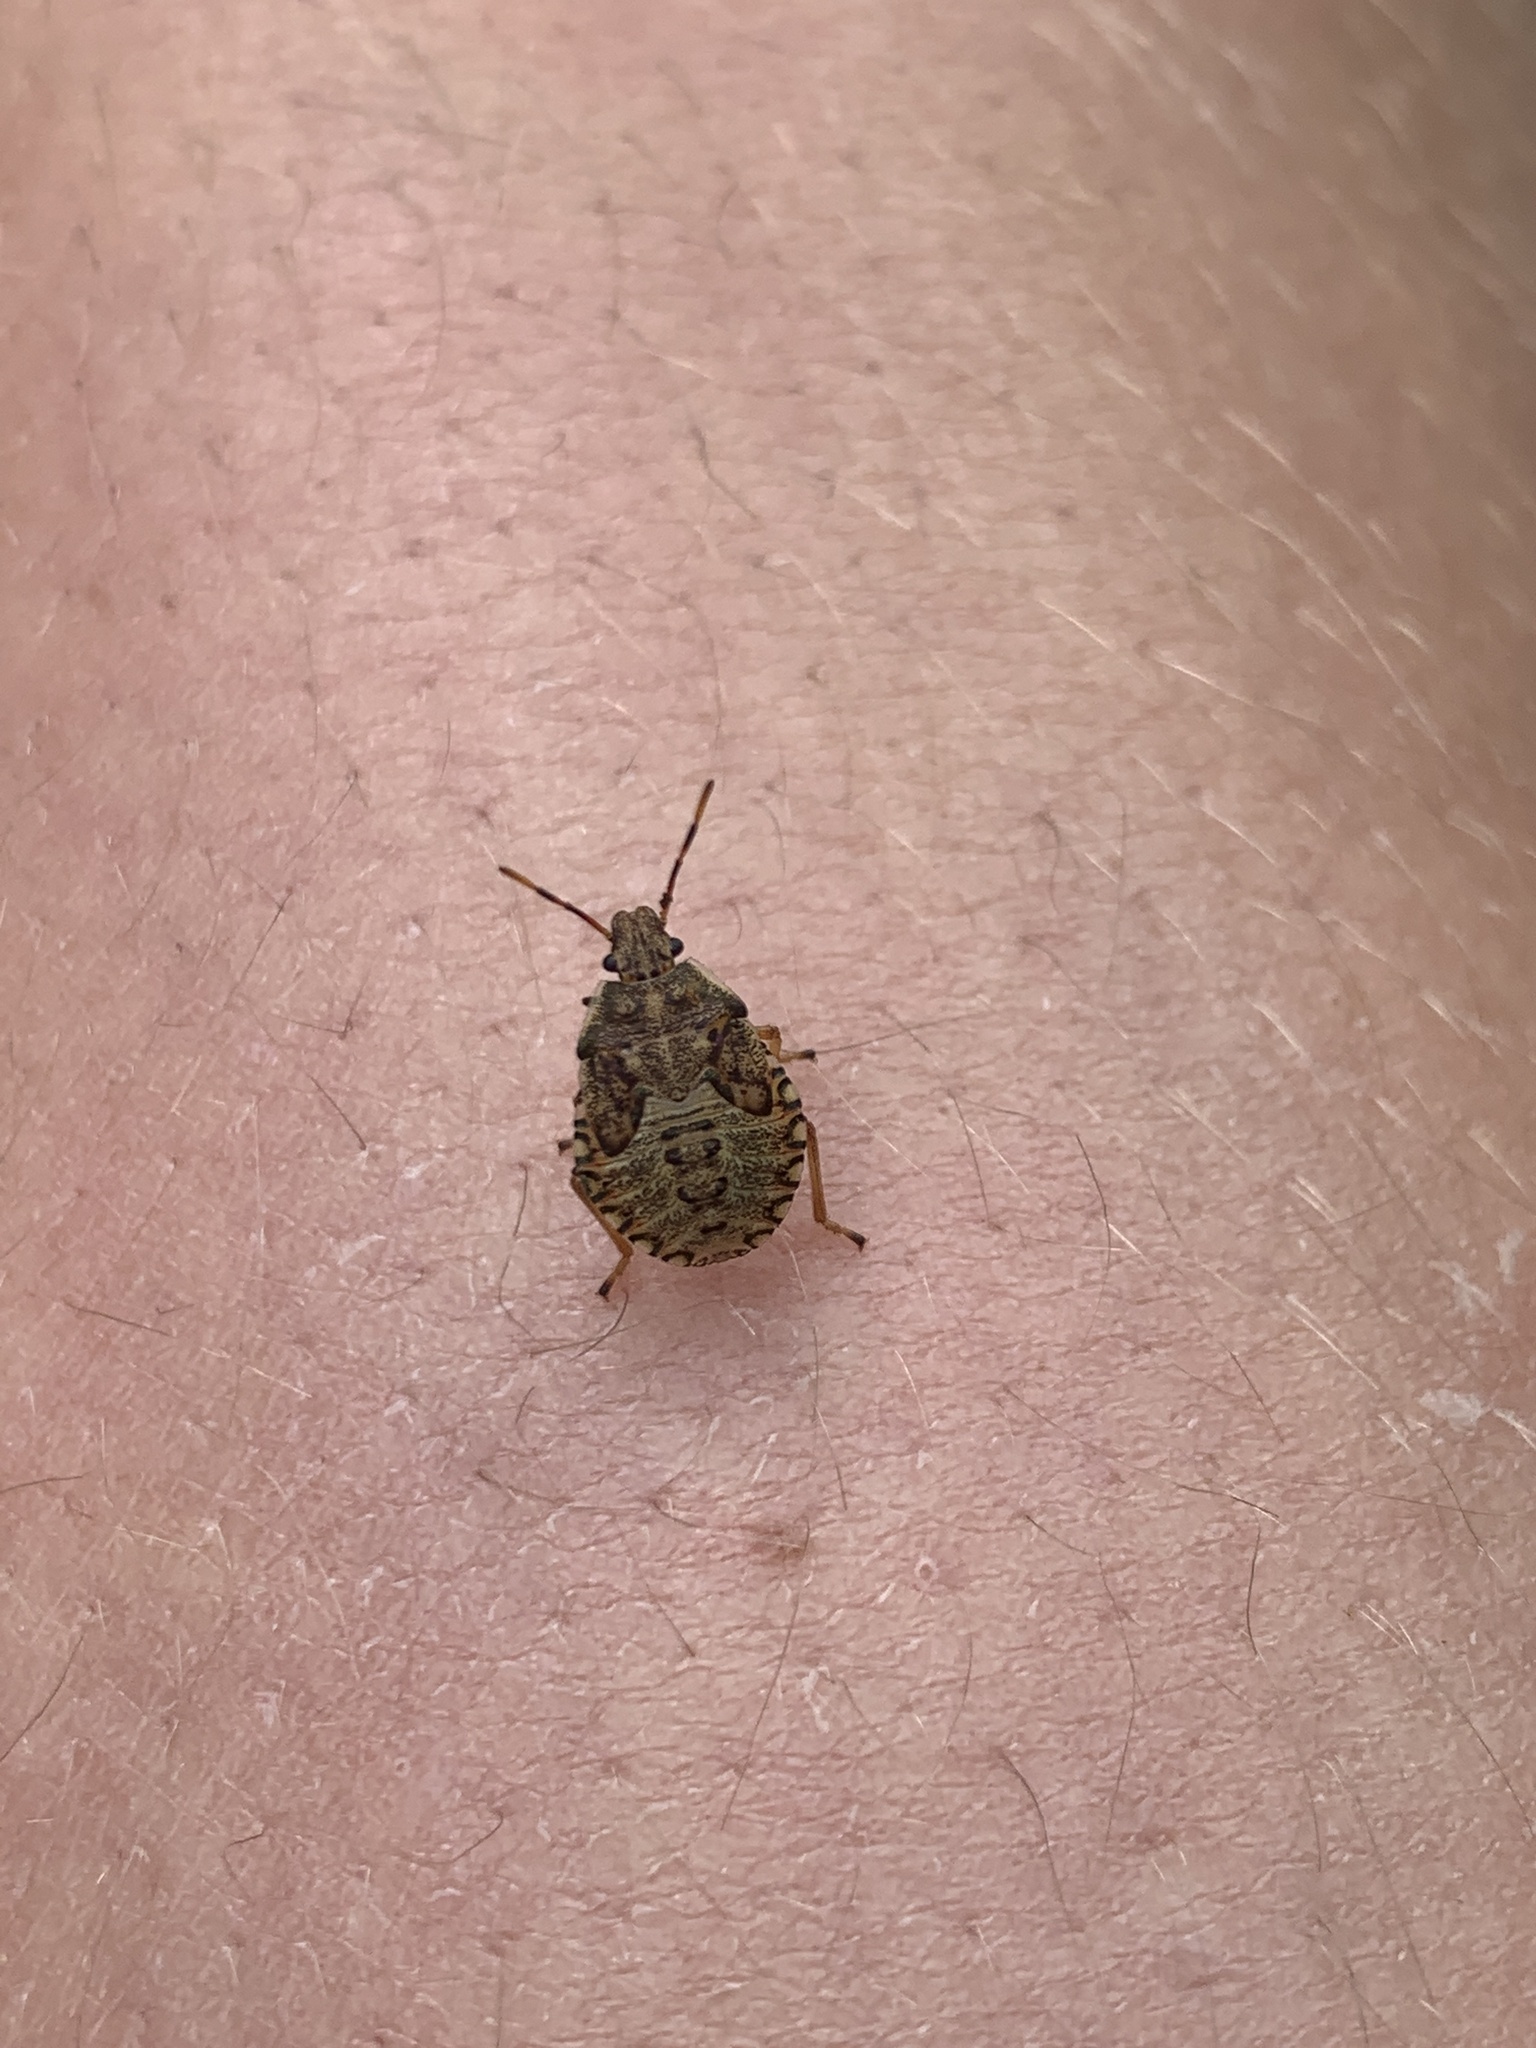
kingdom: Animalia
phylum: Arthropoda
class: Insecta
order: Hemiptera
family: Pentatomidae
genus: Arma
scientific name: Arma custos
